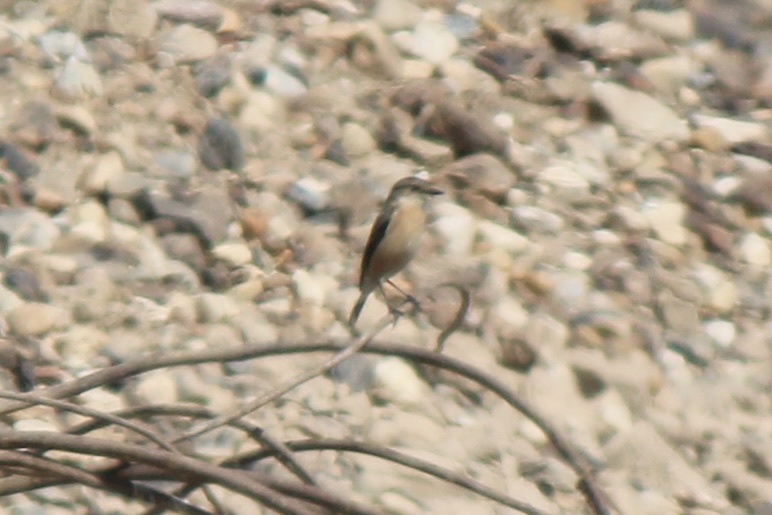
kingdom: Animalia
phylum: Chordata
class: Aves
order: Passeriformes
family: Muscicapidae
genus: Saxicola
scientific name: Saxicola stejnegeri
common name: Stejneger's stonechat
